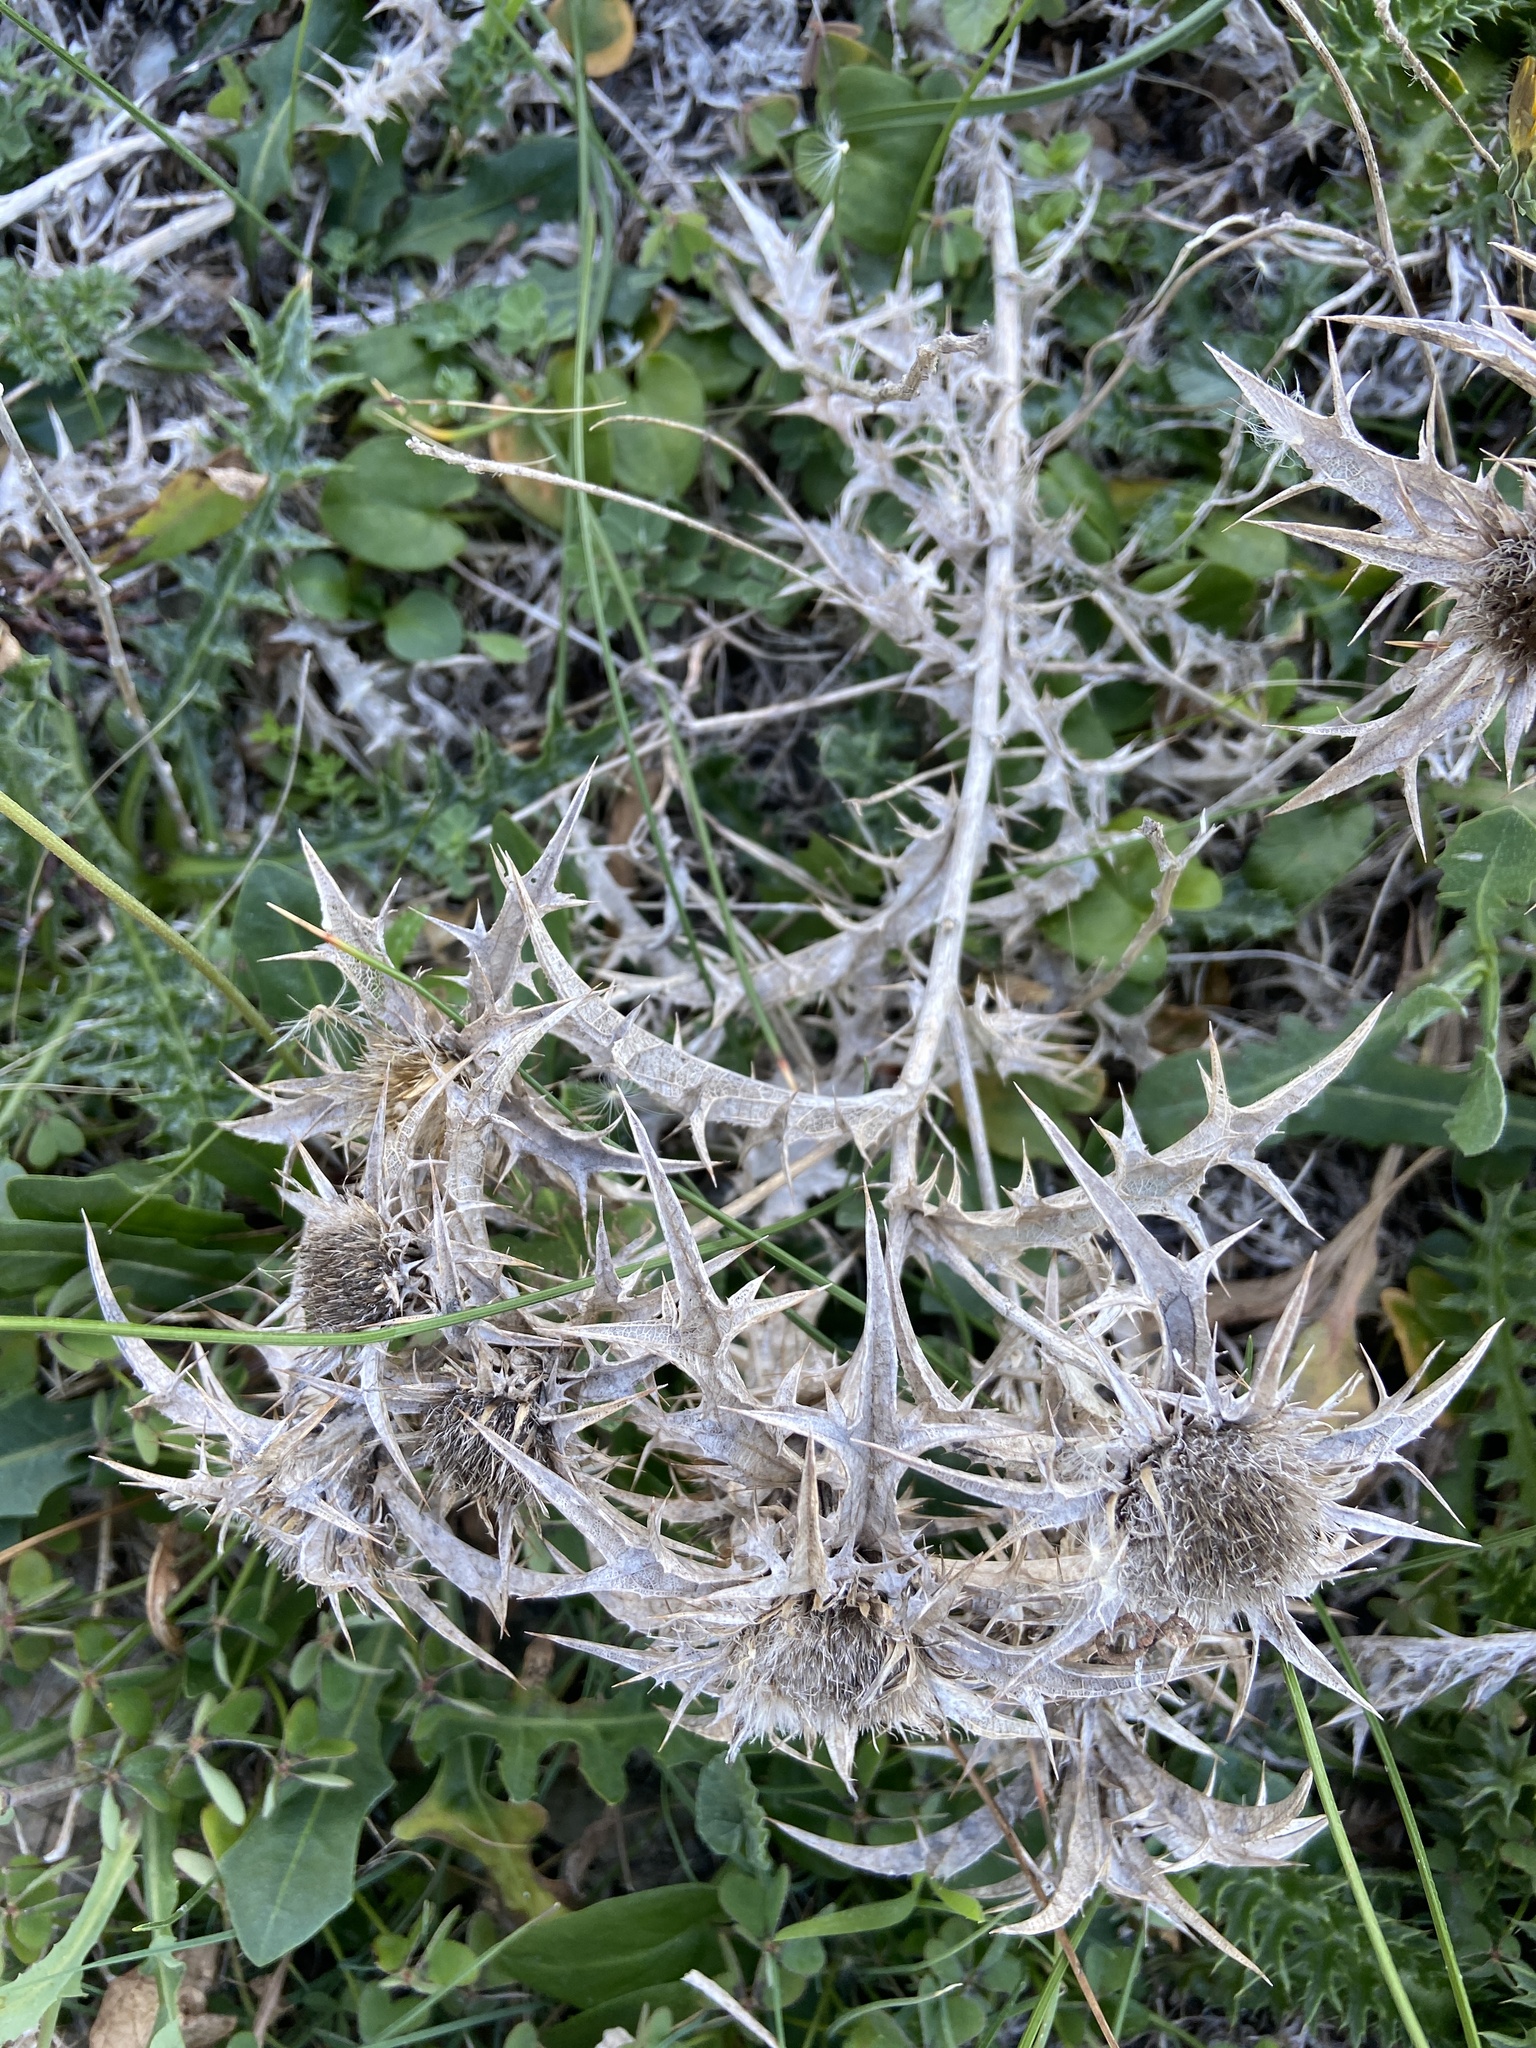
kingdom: Plantae
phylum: Tracheophyta
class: Magnoliopsida
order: Asterales
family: Asteraceae
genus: Carlina
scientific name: Carlina involucrata
